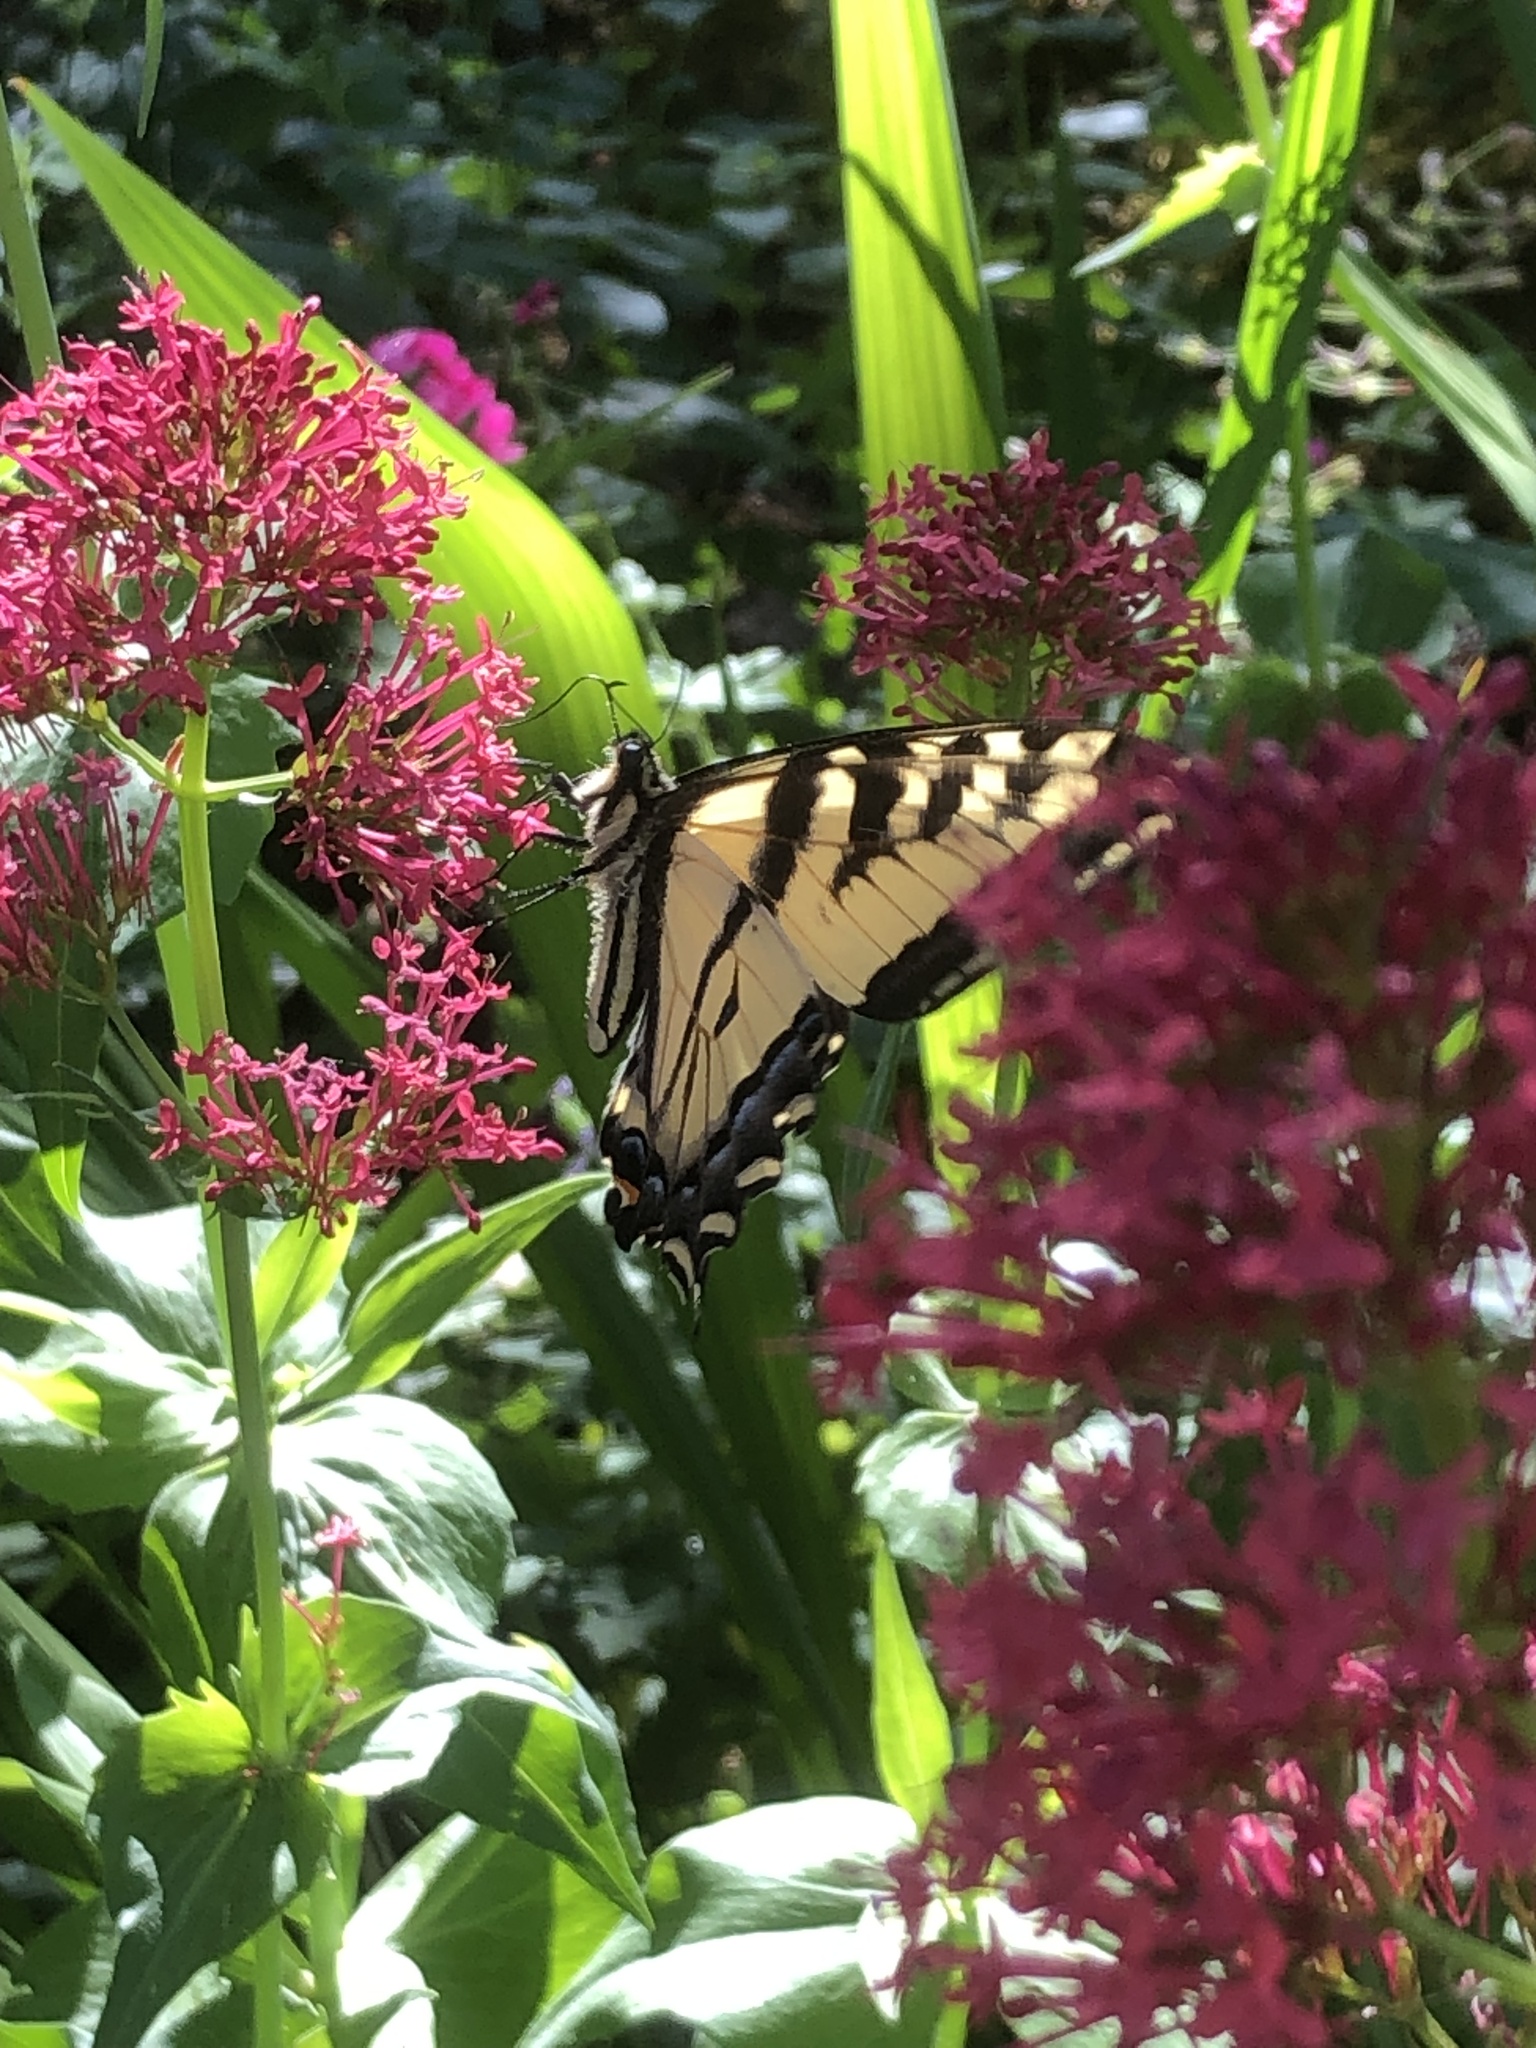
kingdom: Animalia
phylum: Arthropoda
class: Insecta
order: Lepidoptera
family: Papilionidae
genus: Papilio
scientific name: Papilio rutulus
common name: Western tiger swallowtail
